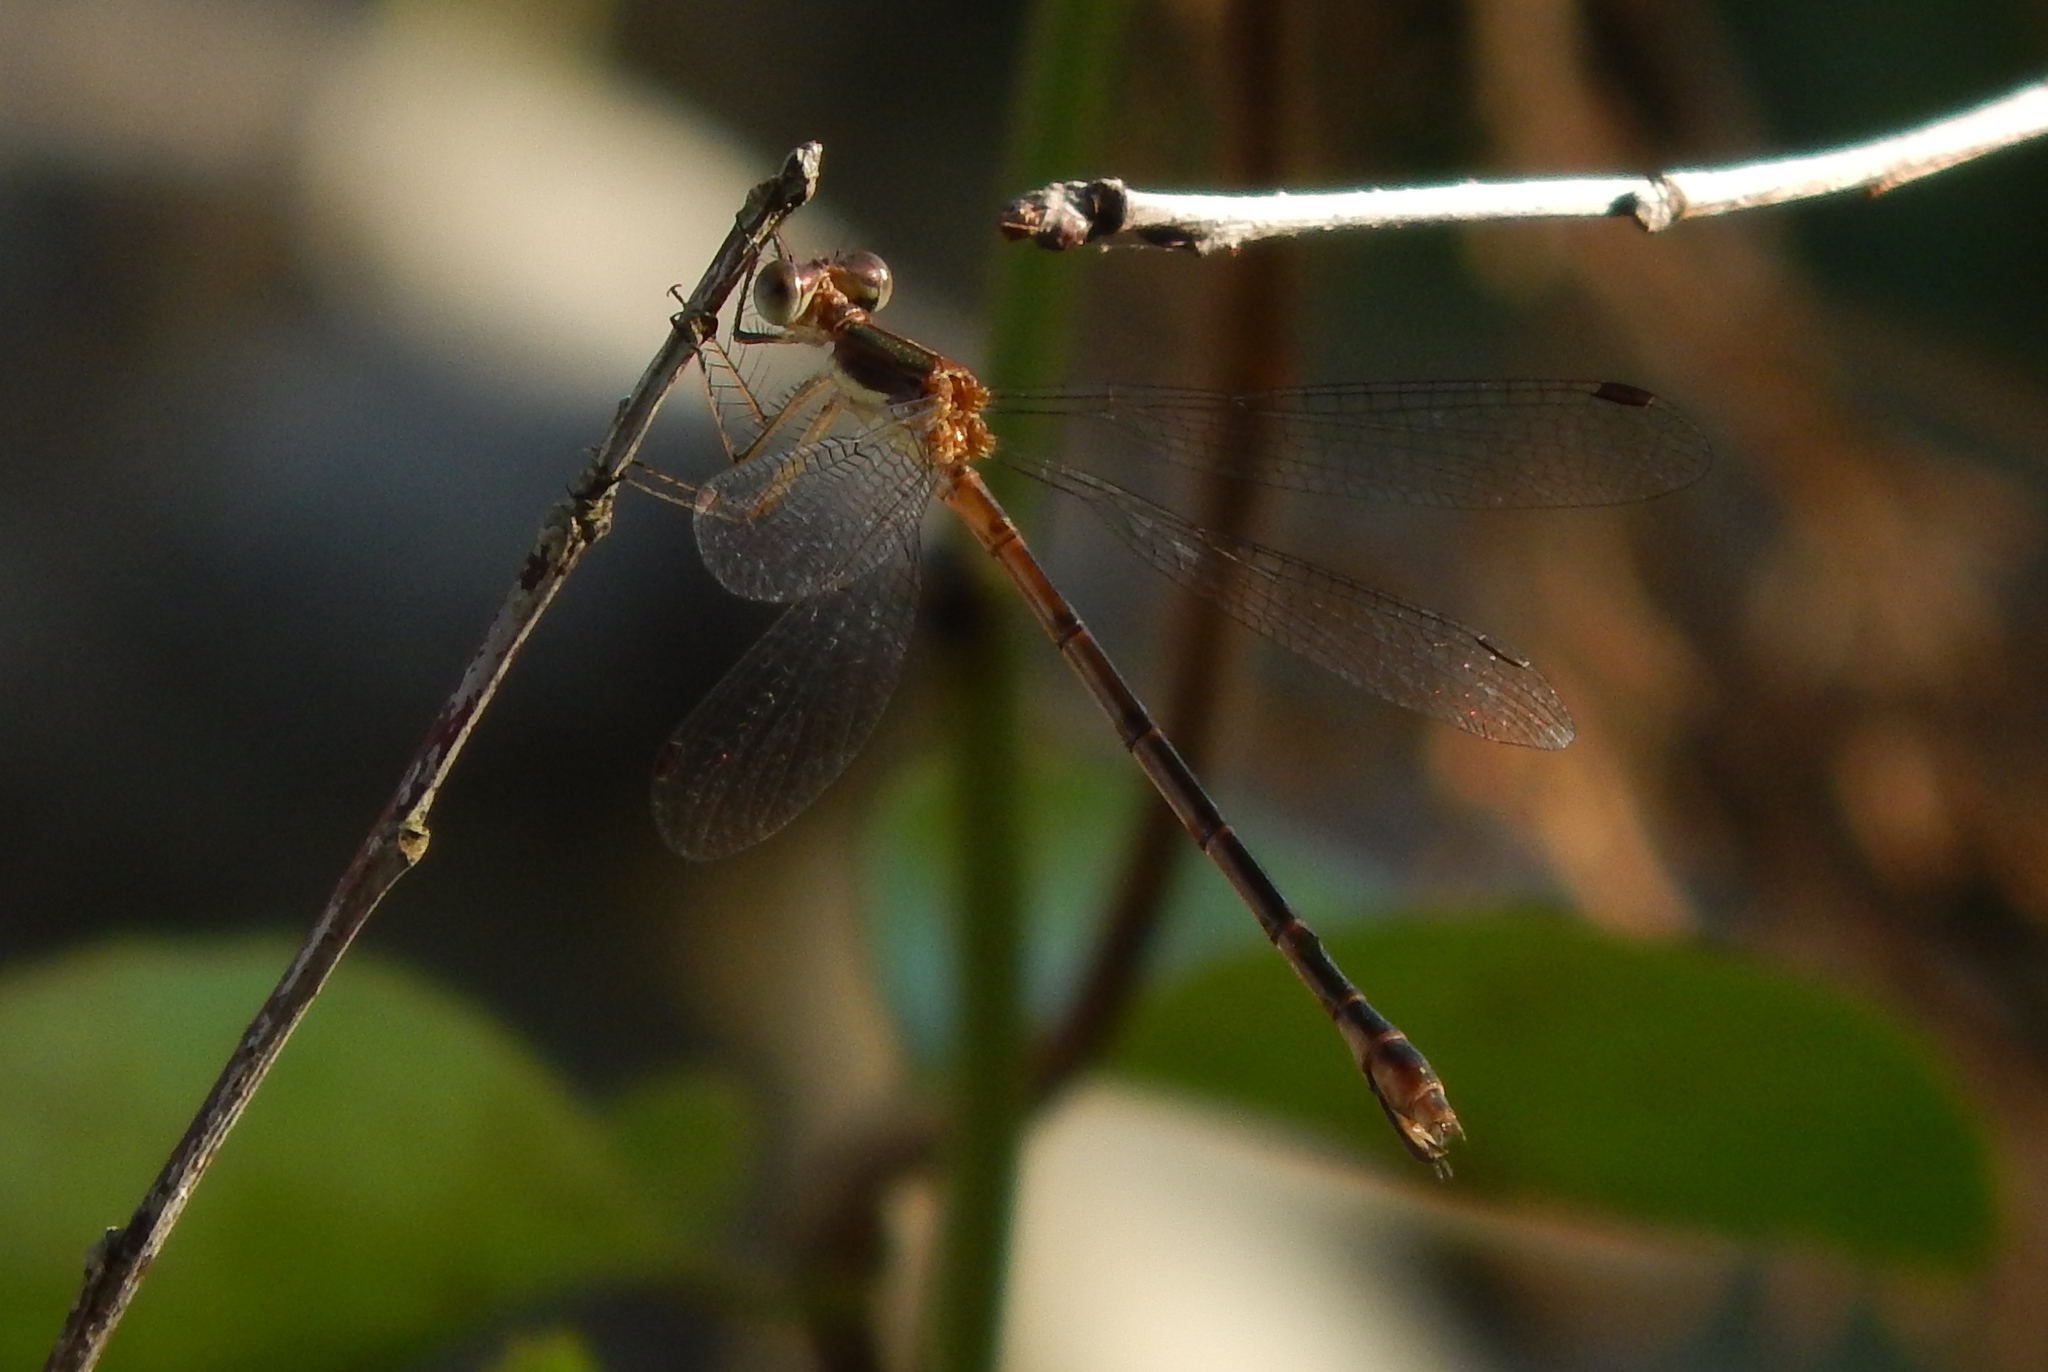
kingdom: Animalia
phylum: Arthropoda
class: Insecta
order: Odonata
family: Lestidae
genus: Lestes
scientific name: Lestes forcipatus
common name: Sweetflag spreadwing
